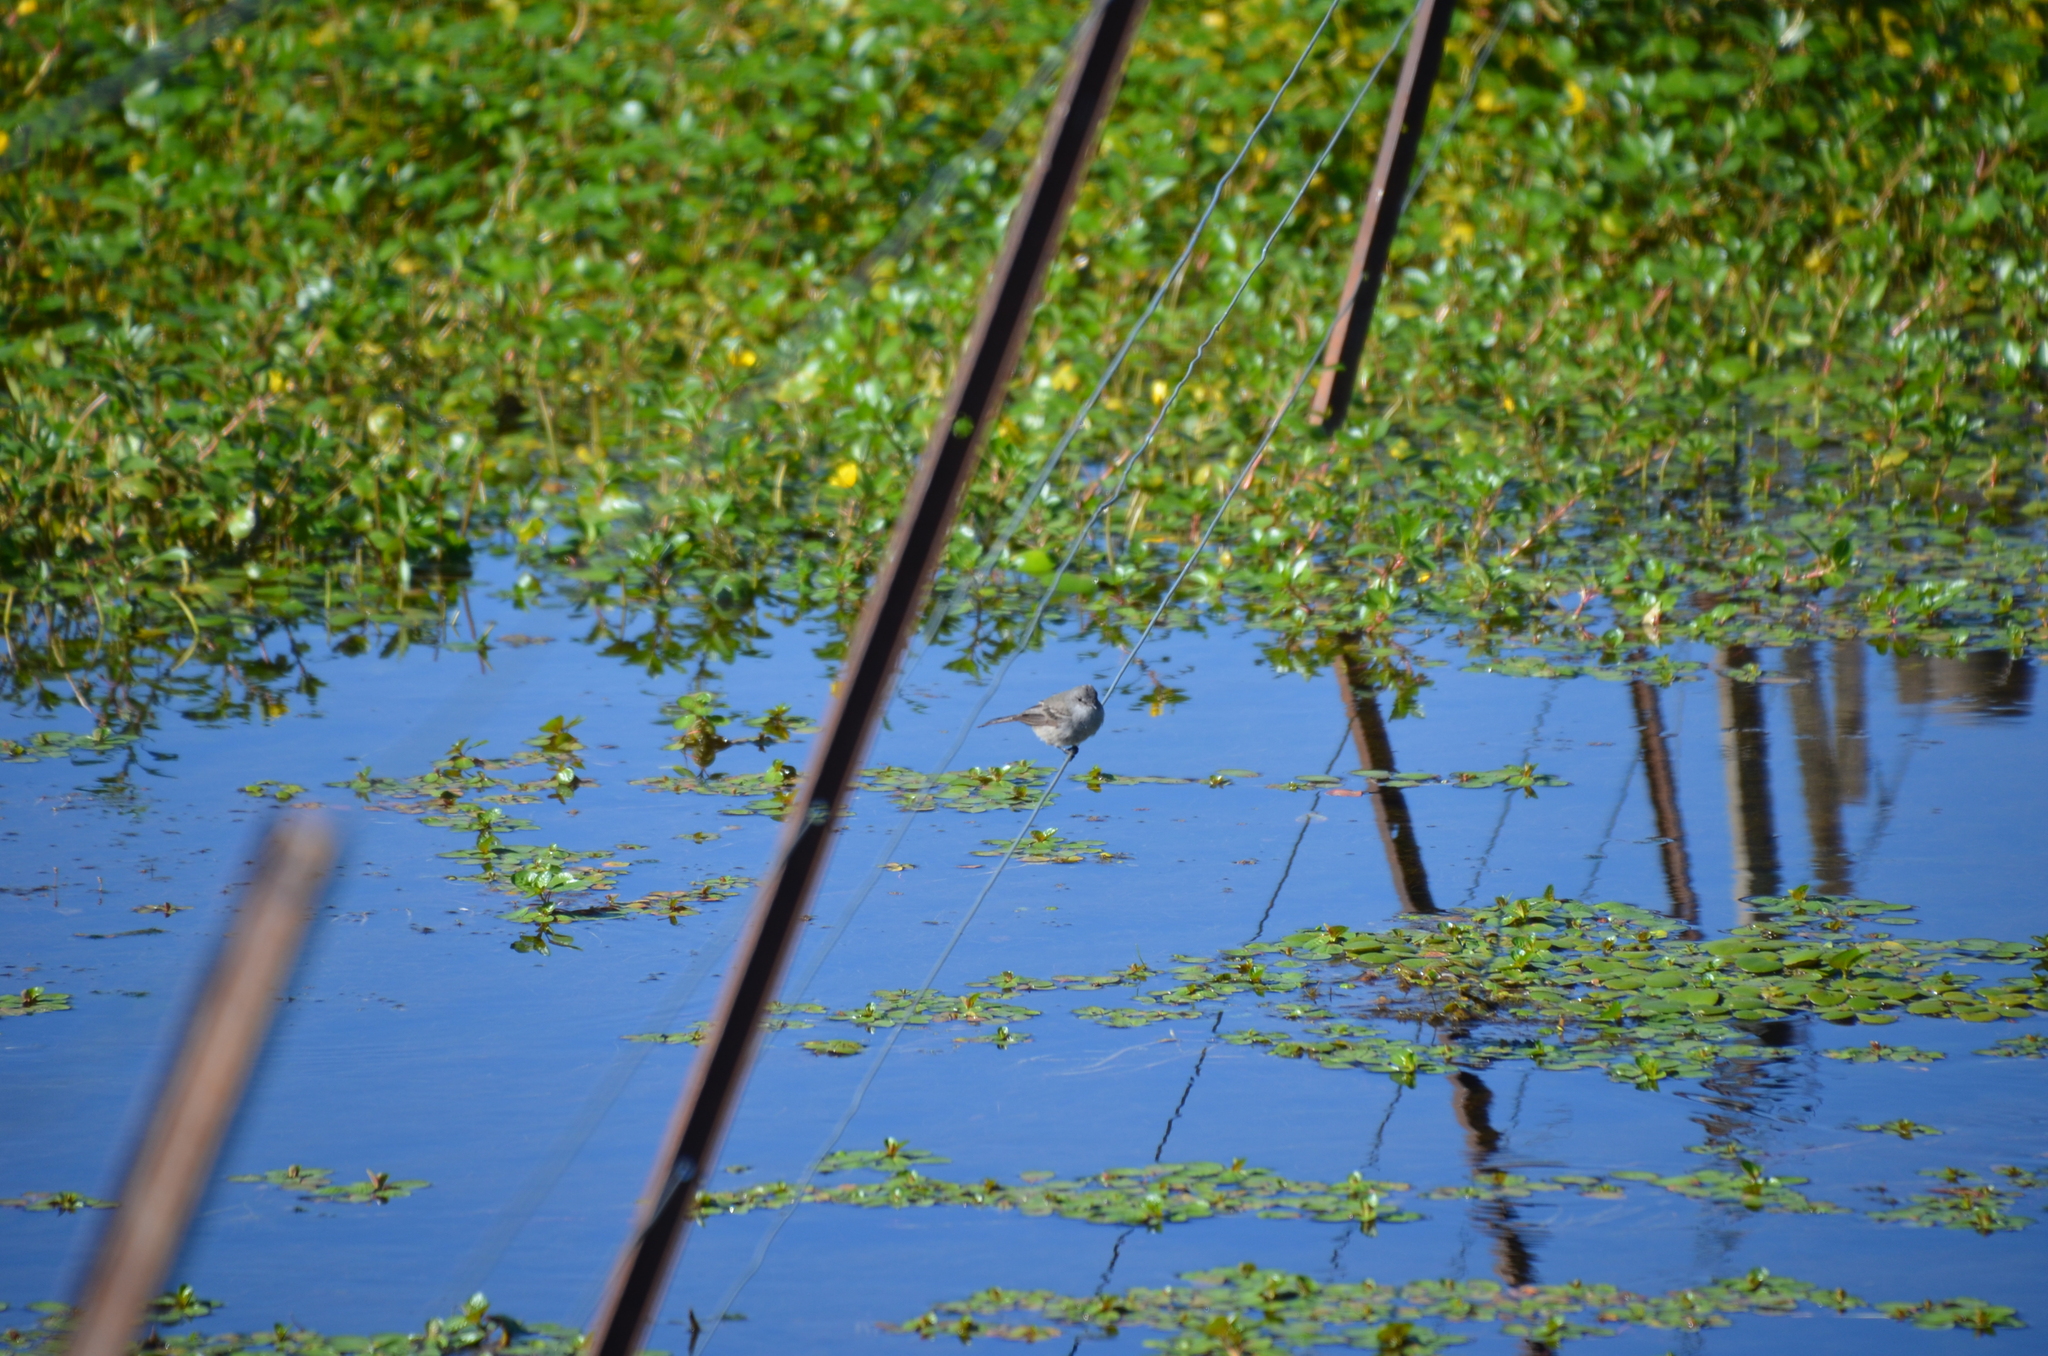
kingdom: Animalia
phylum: Chordata
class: Aves
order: Passeriformes
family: Tyrannidae
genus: Serpophaga
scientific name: Serpophaga nigricans
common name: Sooty tyrannulet
